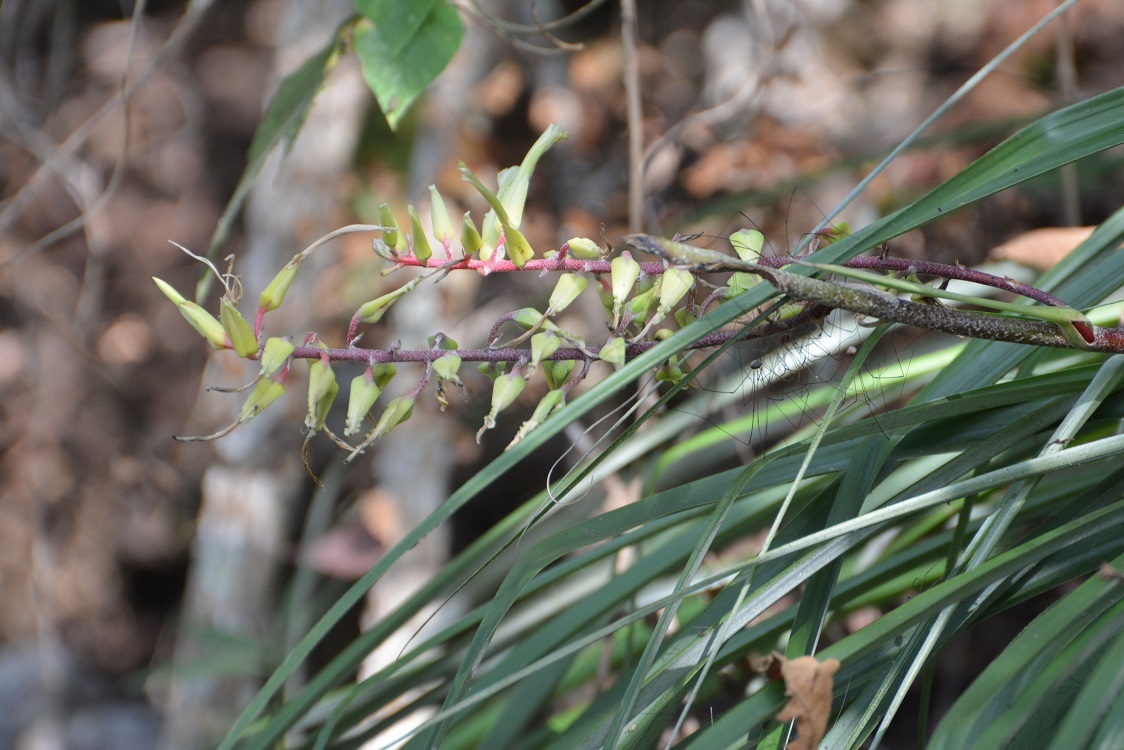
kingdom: Plantae
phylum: Tracheophyta
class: Liliopsida
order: Poales
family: Bromeliaceae
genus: Pitcairnia
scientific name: Pitcairnia breedlovei
